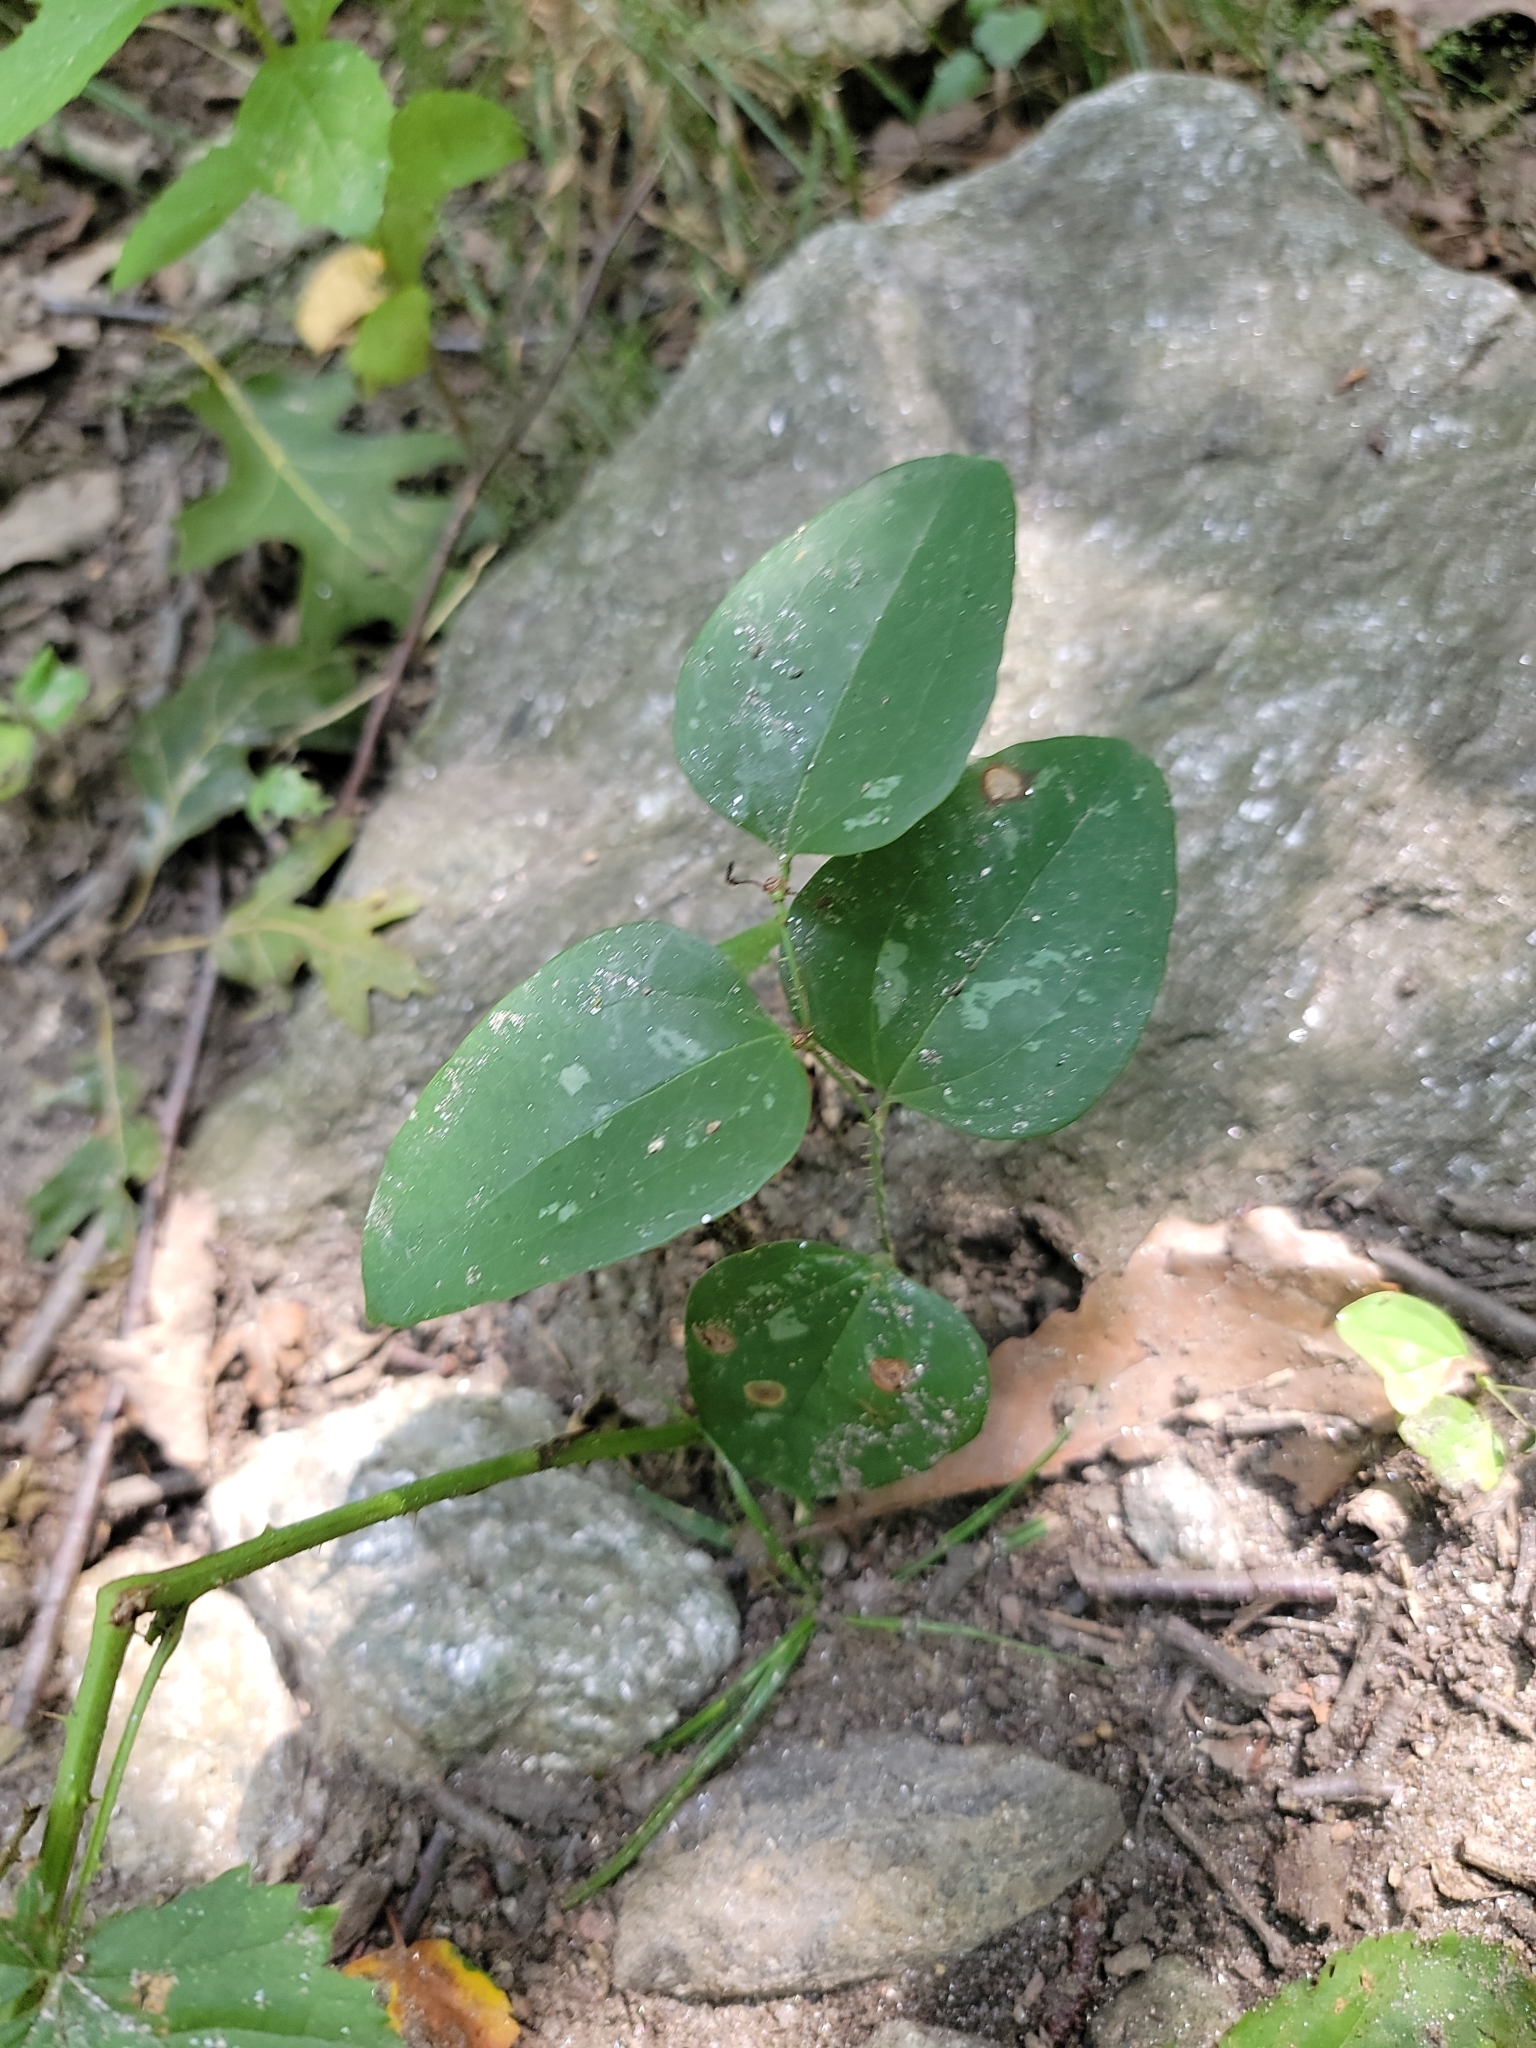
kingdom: Plantae
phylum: Tracheophyta
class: Liliopsida
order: Liliales
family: Smilacaceae
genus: Smilax
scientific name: Smilax glauca
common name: Cat greenbrier
